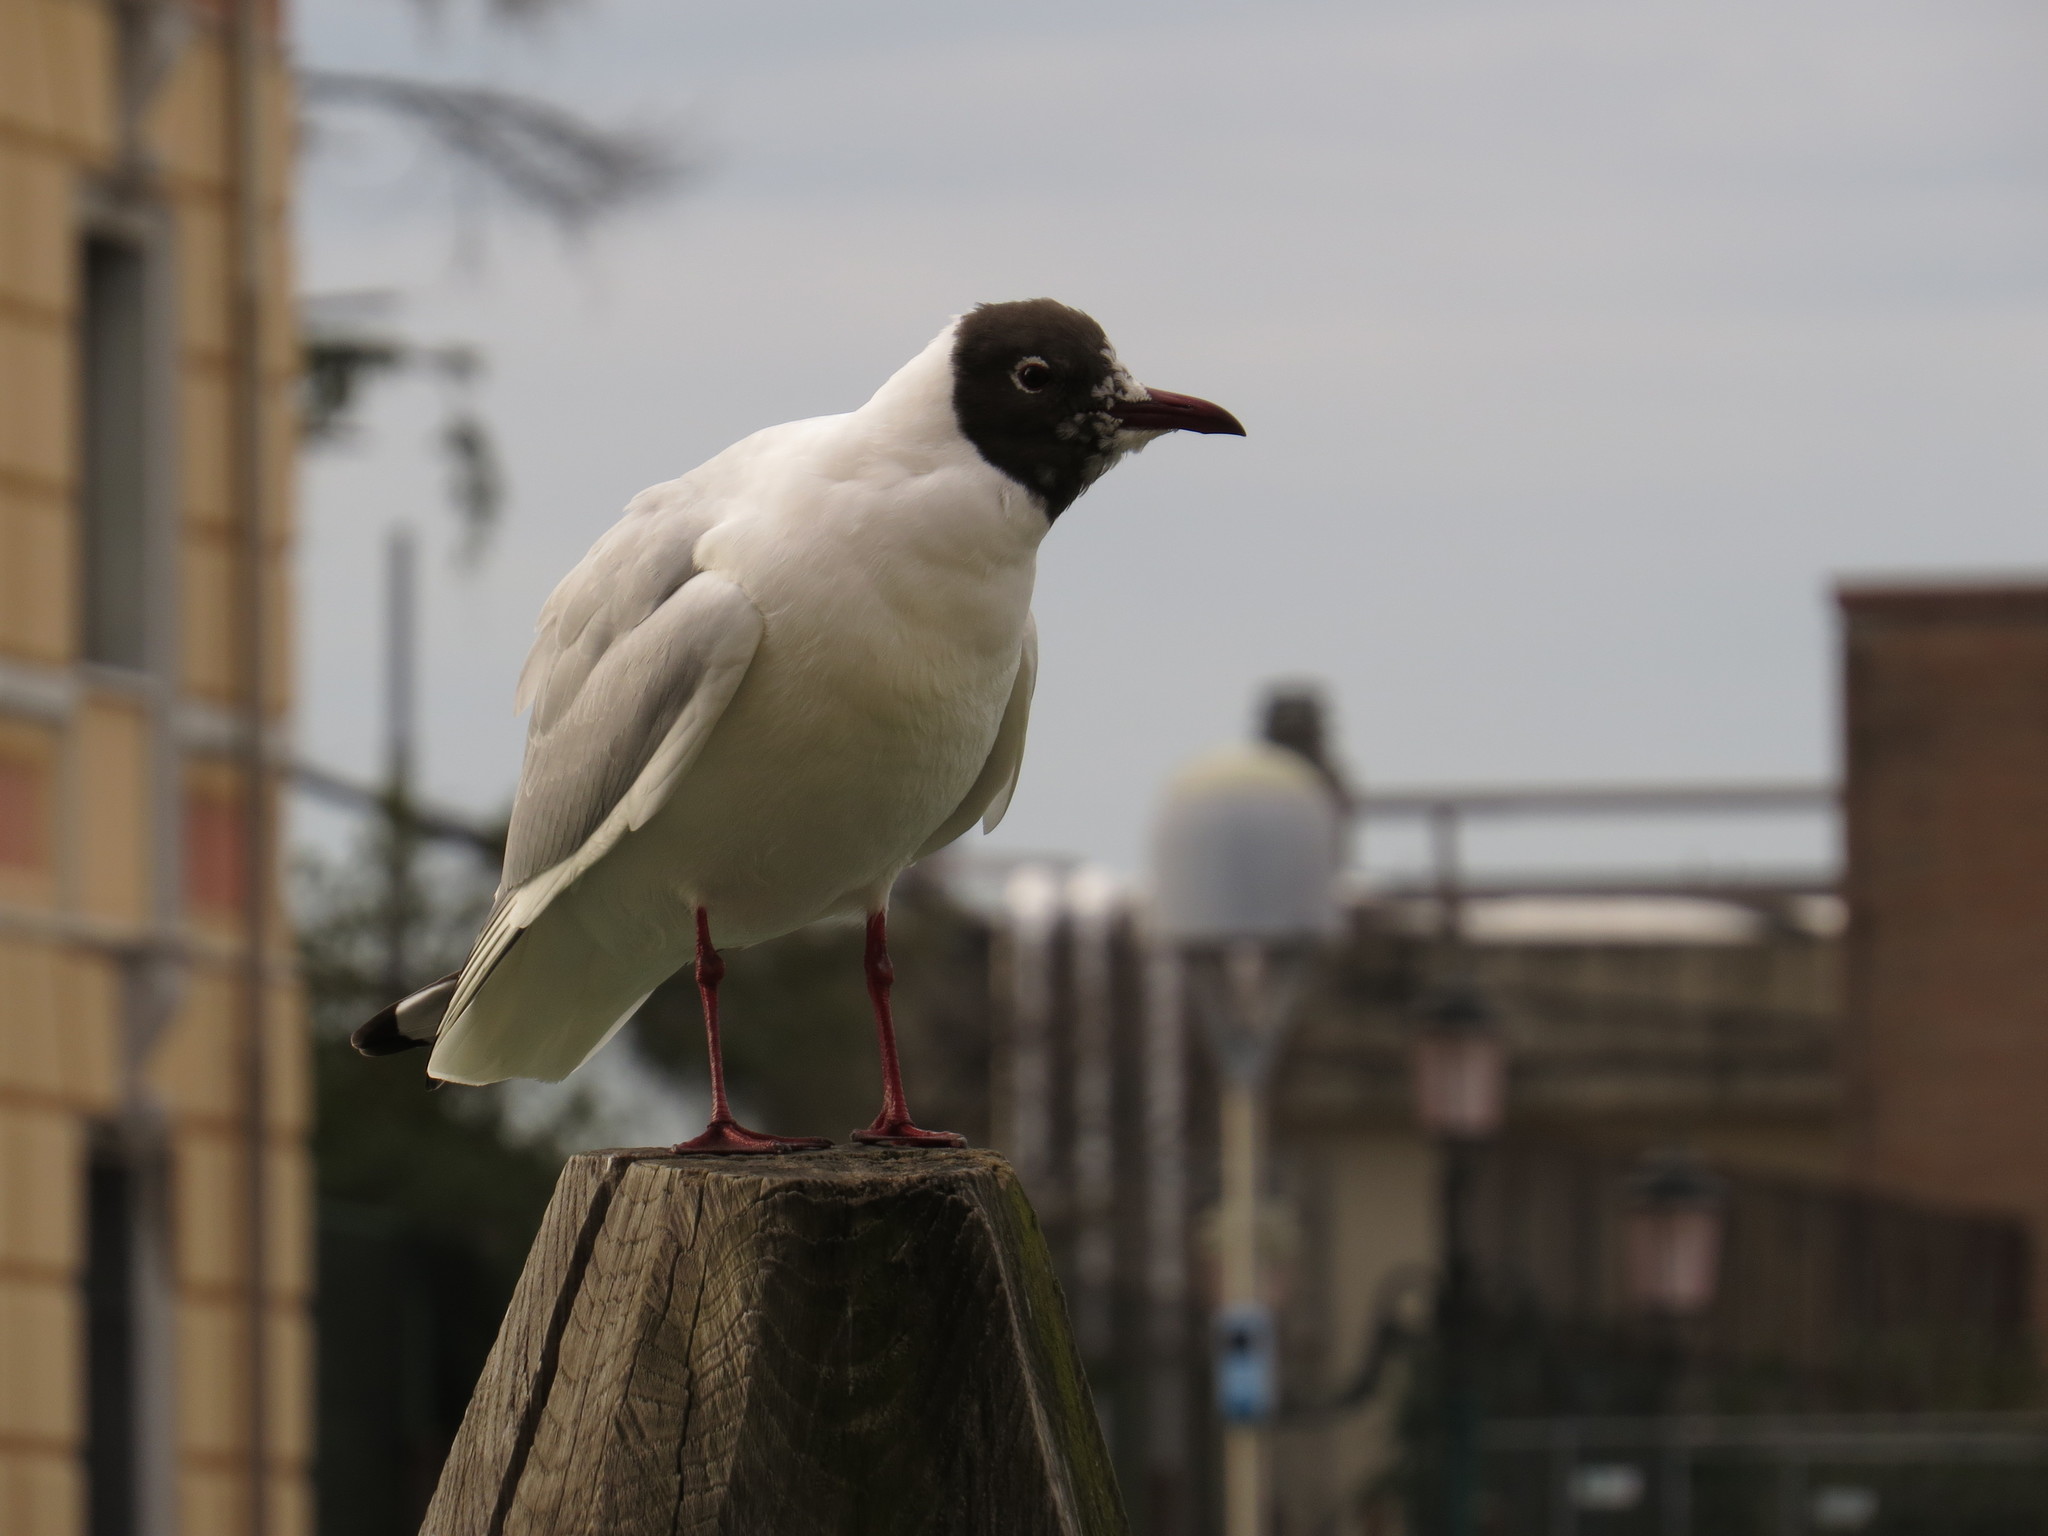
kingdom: Animalia
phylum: Chordata
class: Aves
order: Charadriiformes
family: Laridae
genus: Chroicocephalus
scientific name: Chroicocephalus ridibundus
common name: Black-headed gull
